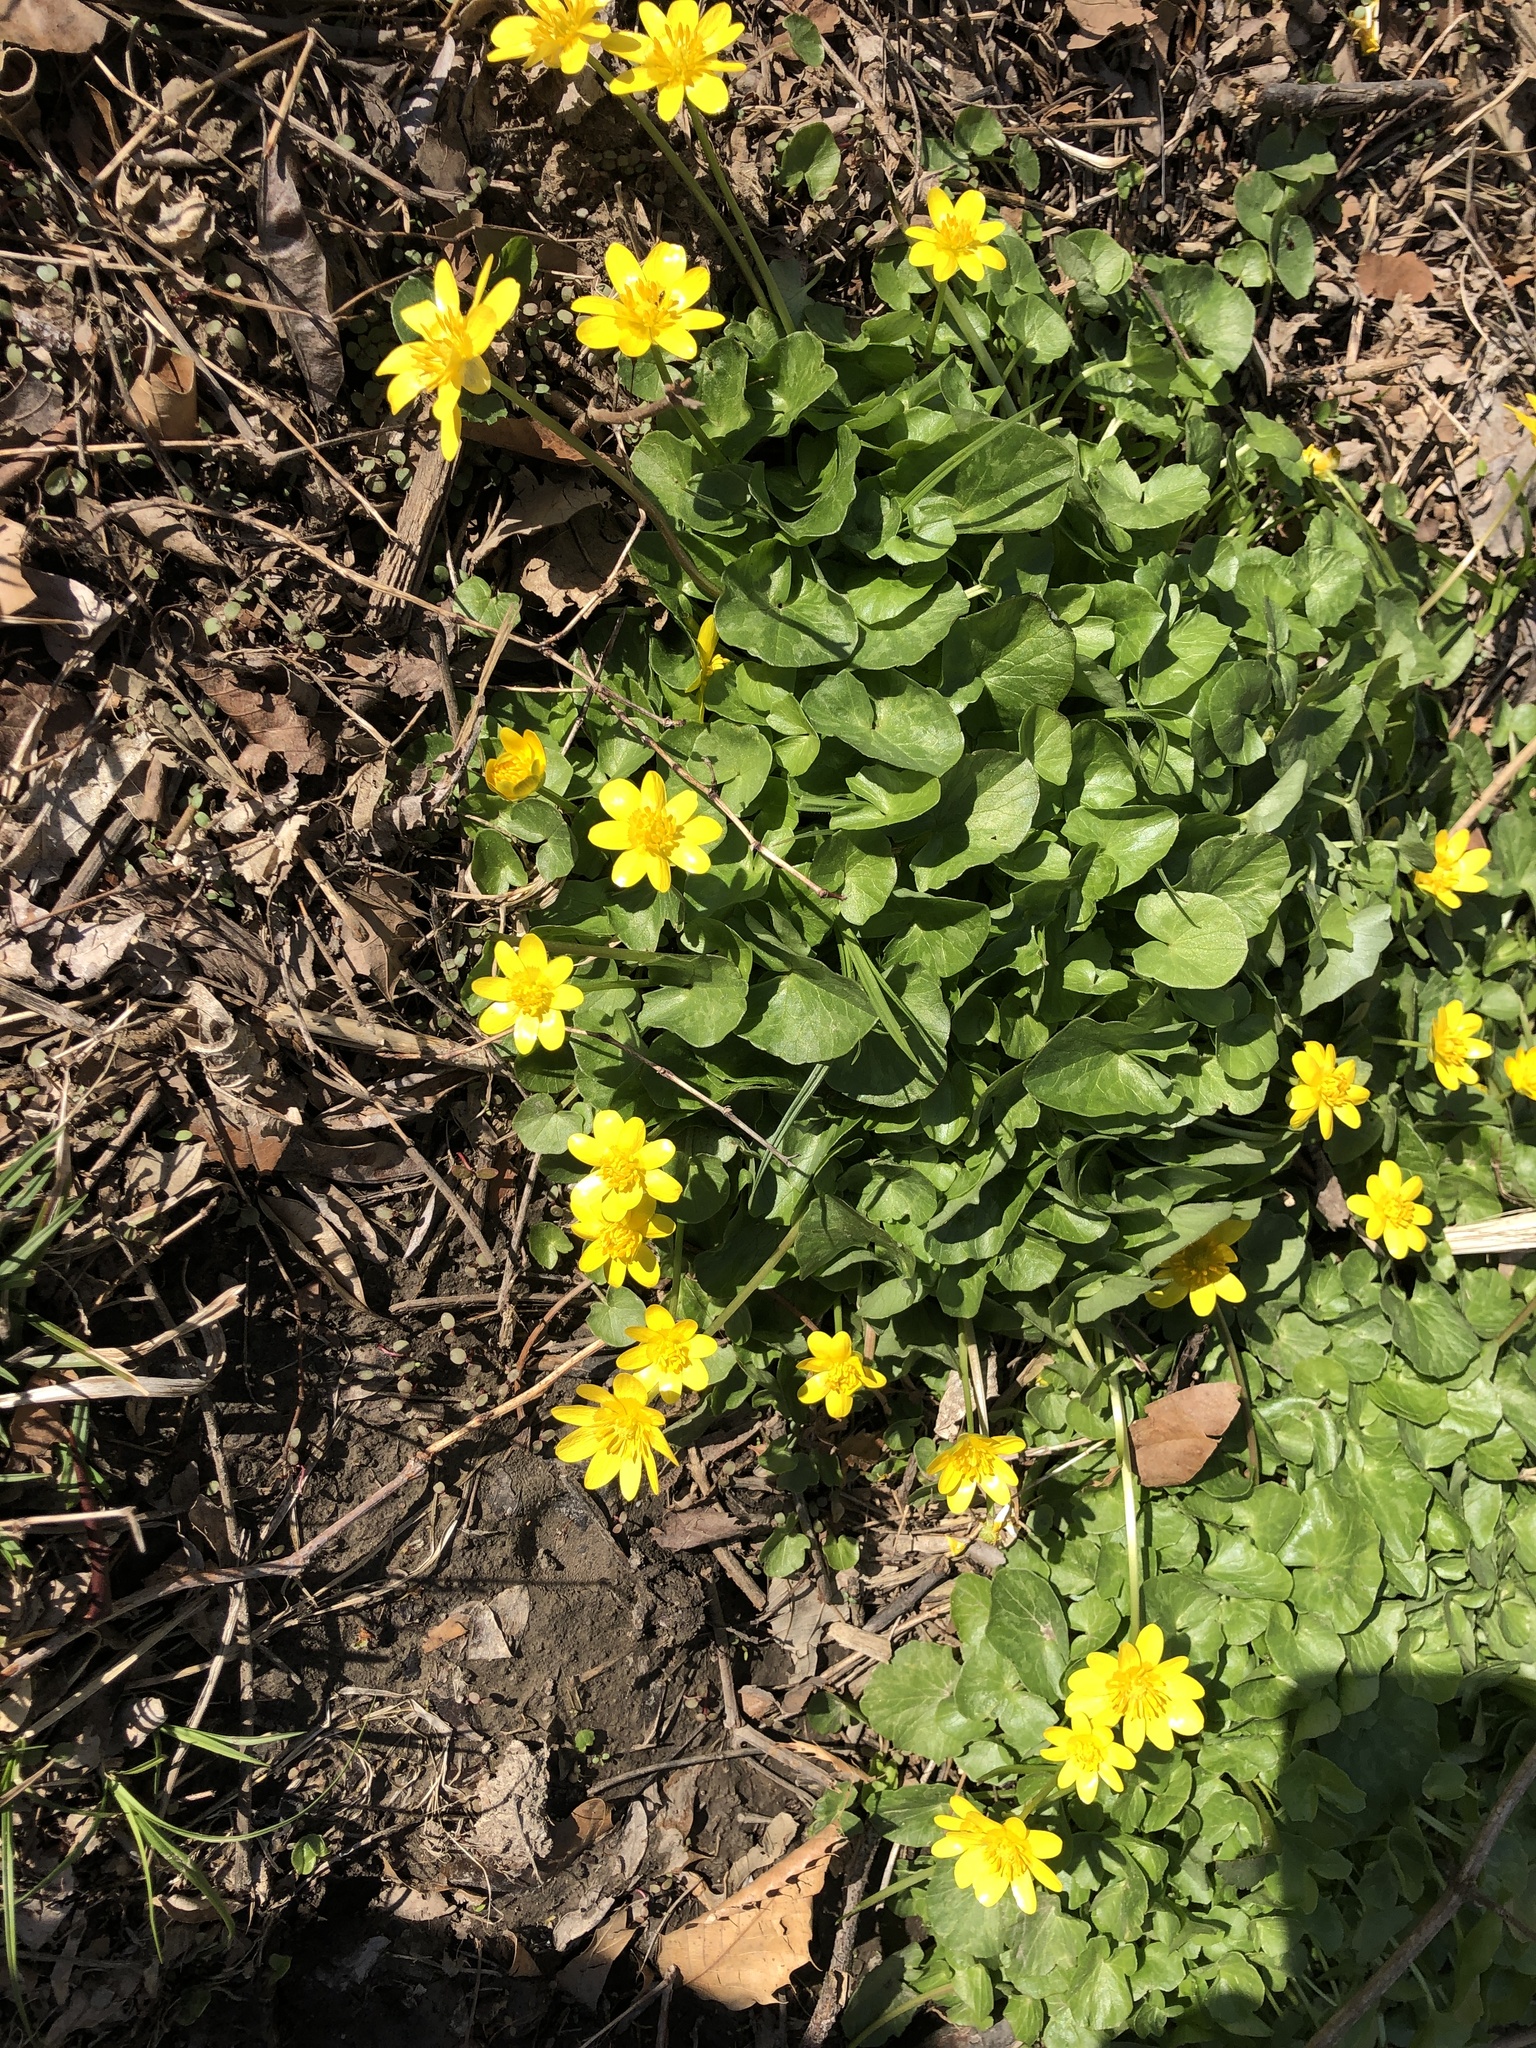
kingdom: Plantae
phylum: Tracheophyta
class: Magnoliopsida
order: Ranunculales
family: Ranunculaceae
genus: Ficaria
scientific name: Ficaria verna
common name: Lesser celandine
